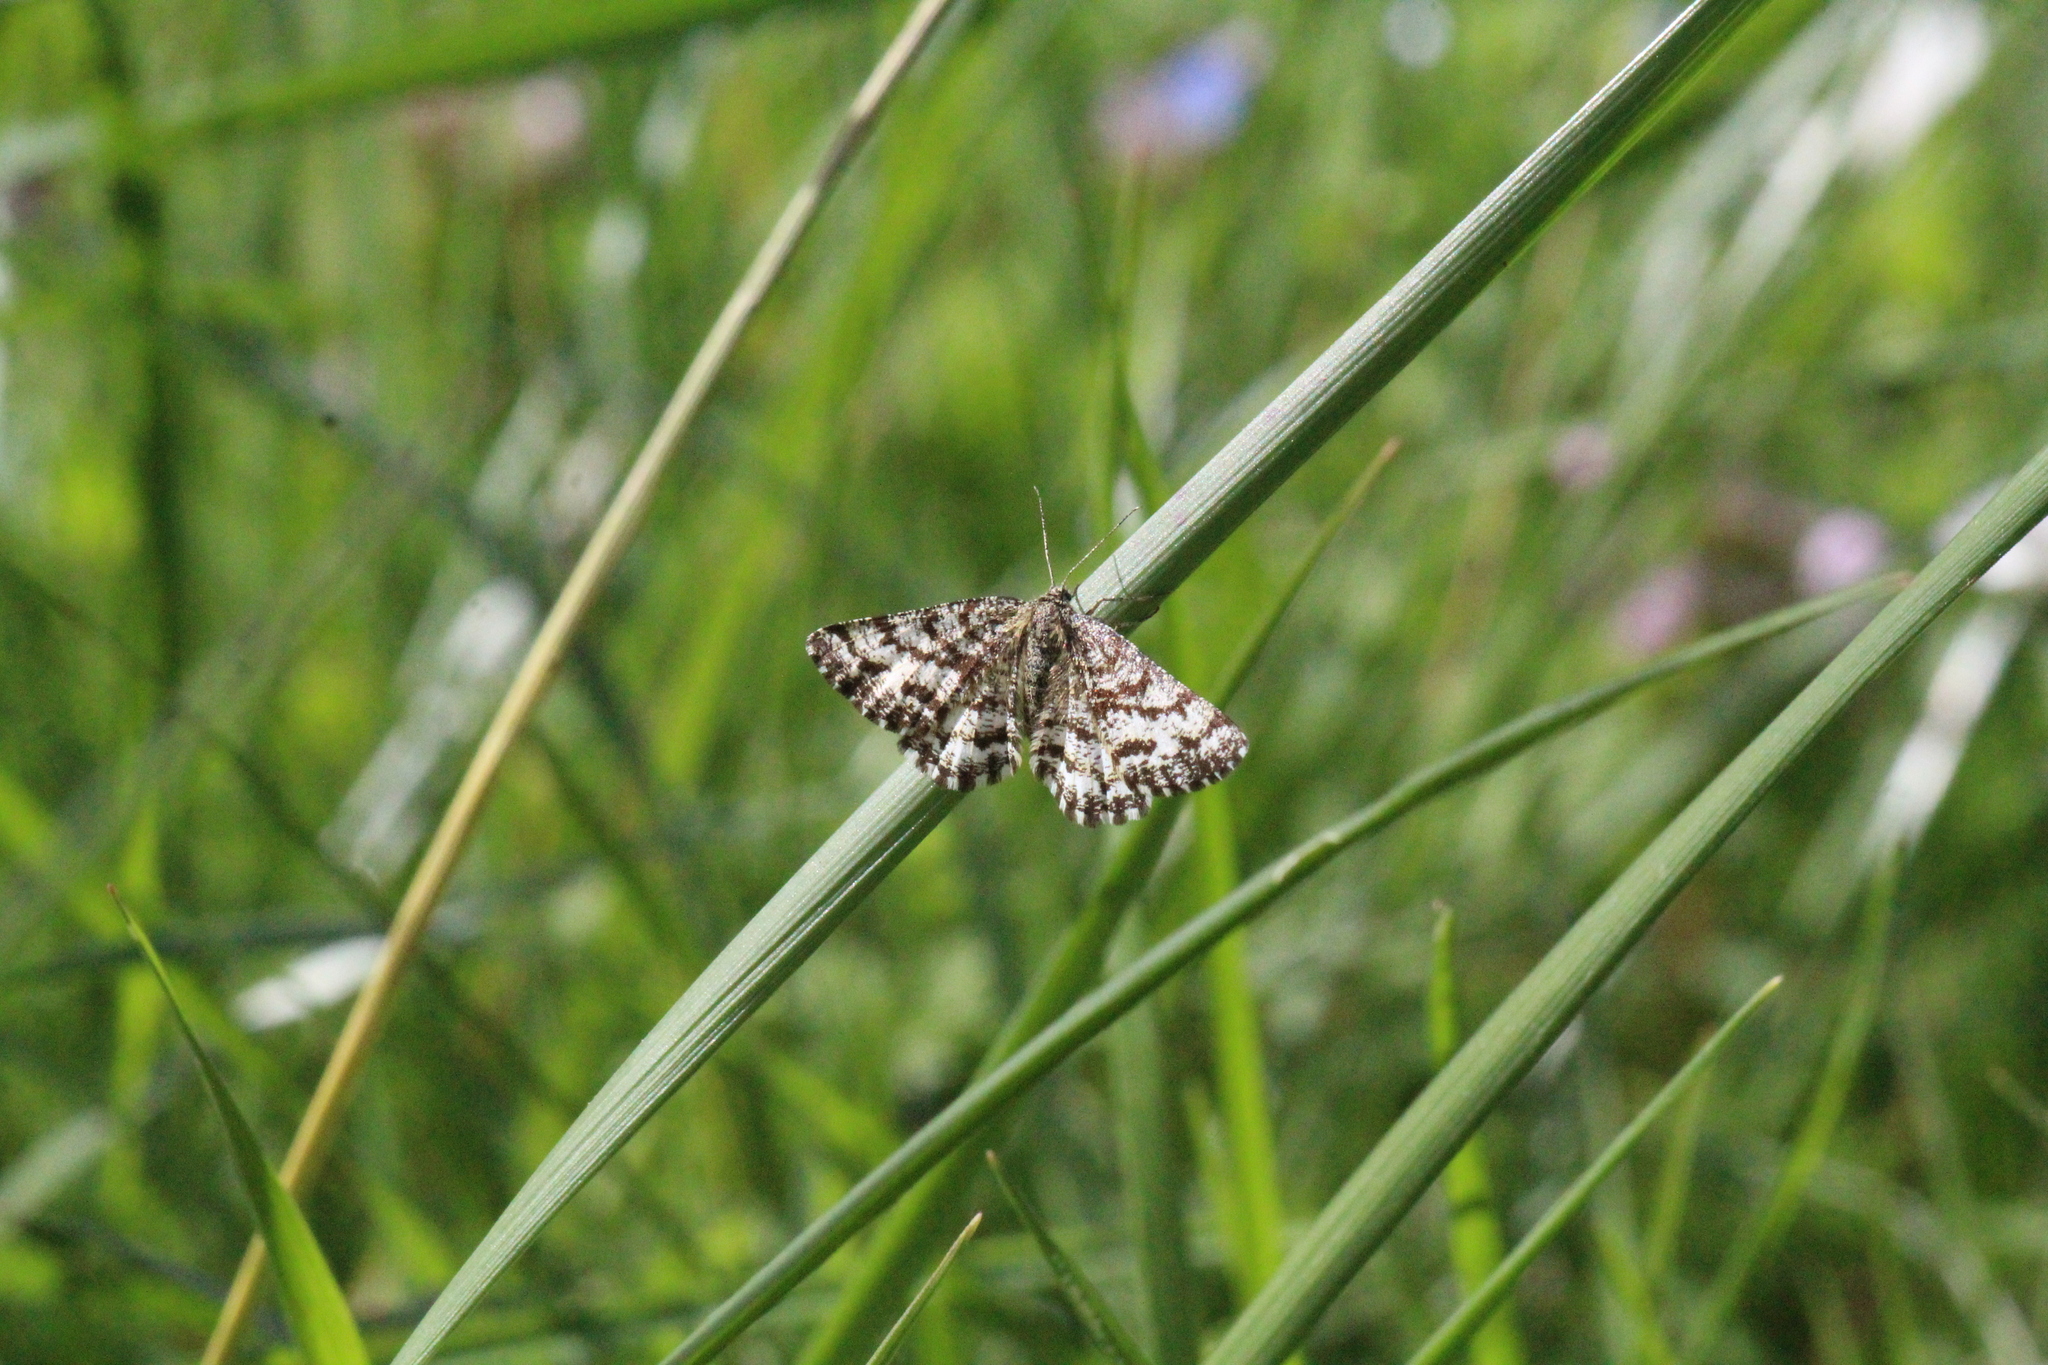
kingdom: Animalia
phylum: Arthropoda
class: Insecta
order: Lepidoptera
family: Geometridae
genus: Ematurga
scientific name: Ematurga atomaria
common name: Common heath
